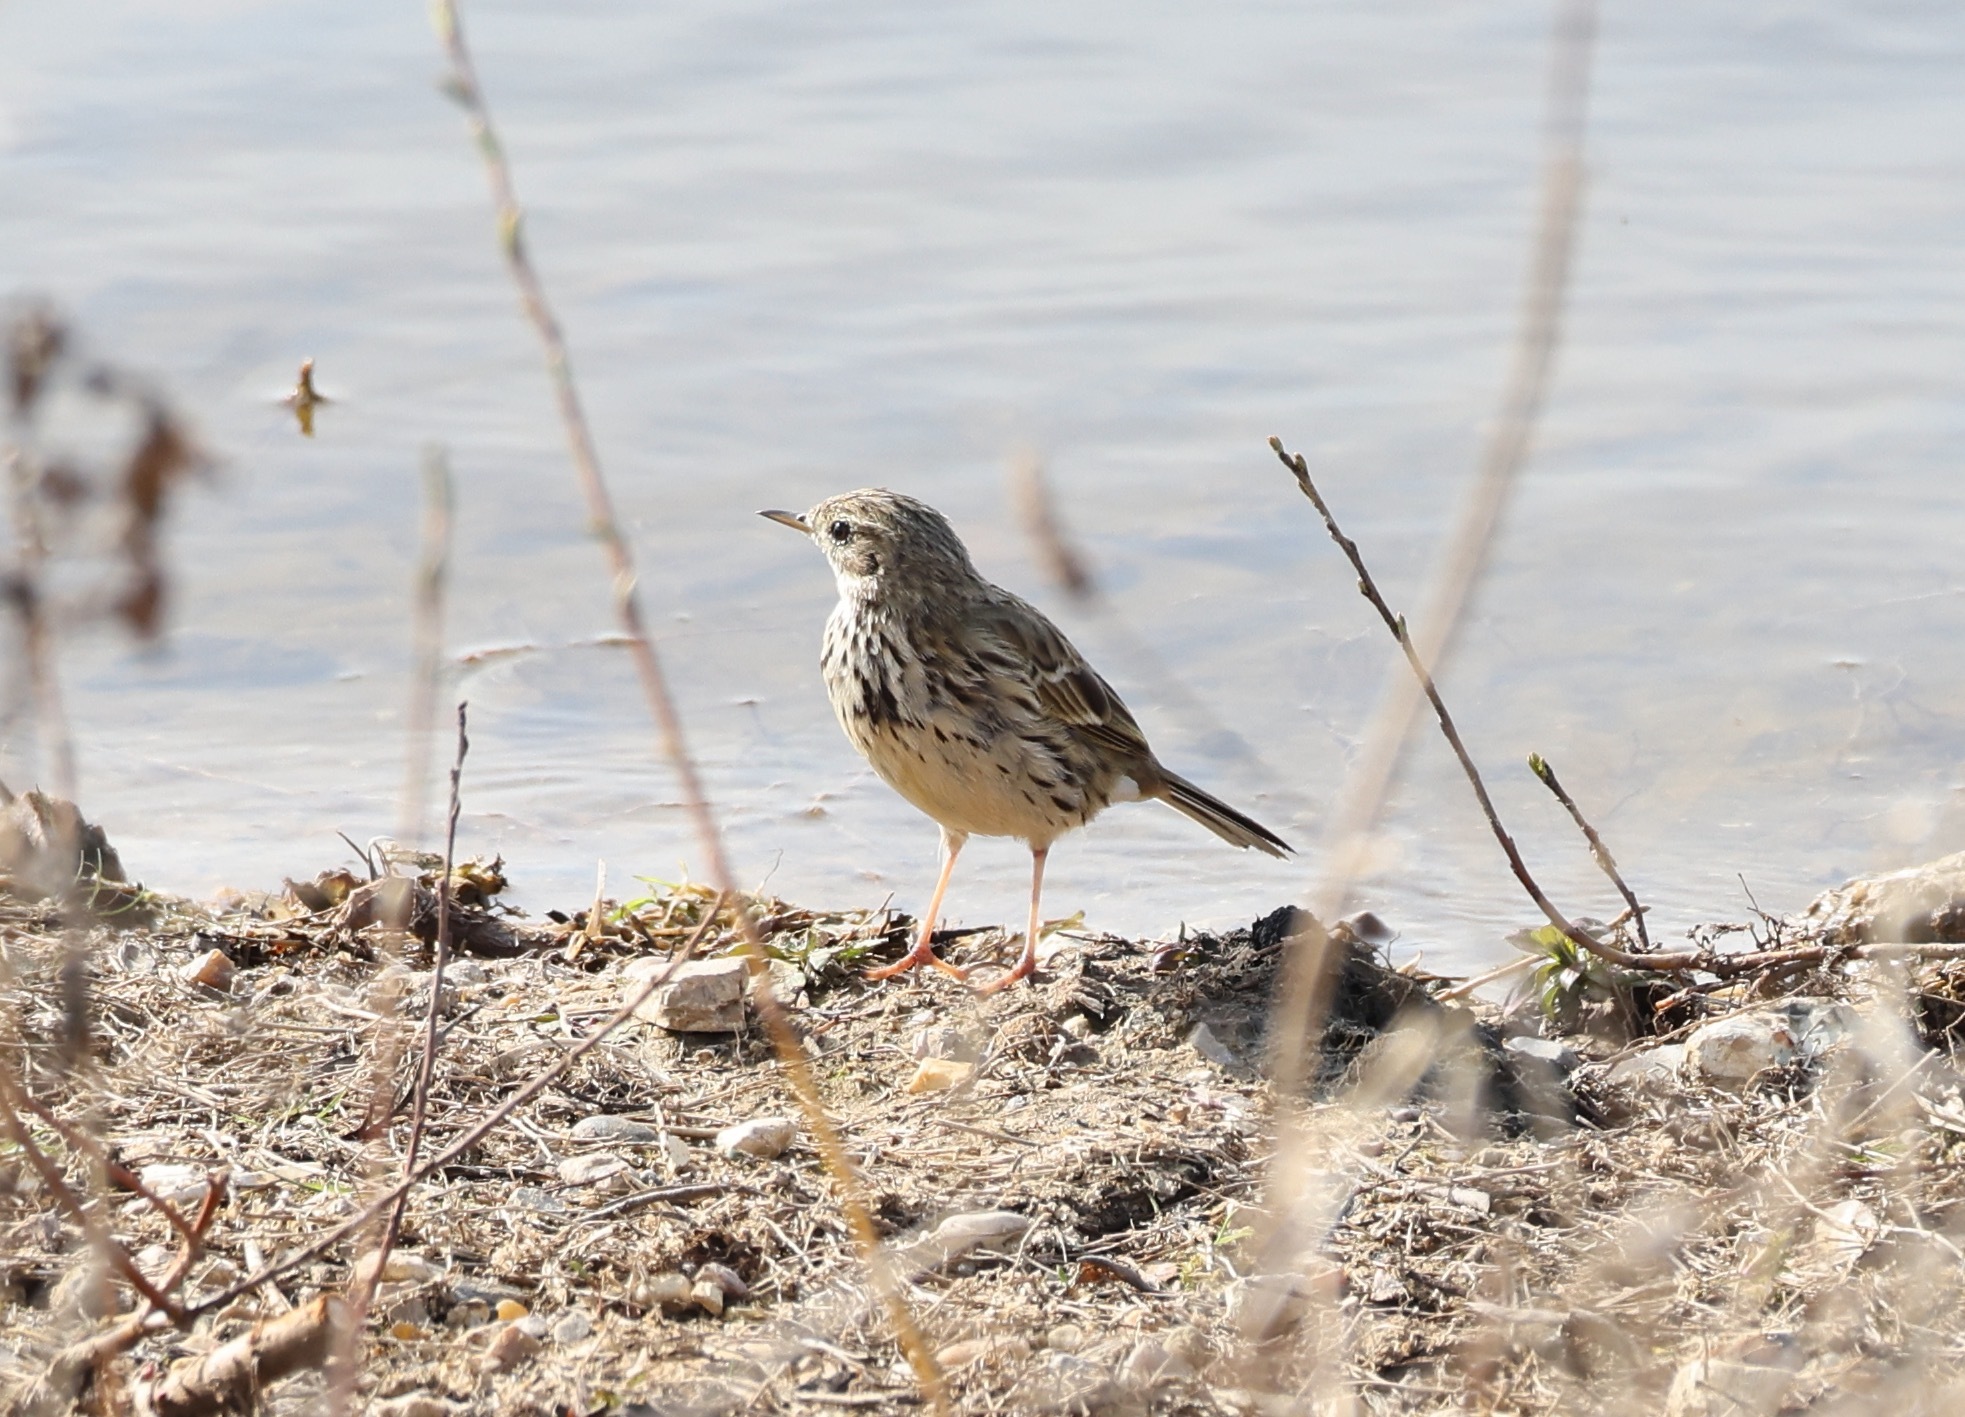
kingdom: Animalia
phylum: Chordata
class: Aves
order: Passeriformes
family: Motacillidae
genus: Anthus
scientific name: Anthus pratensis
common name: Meadow pipit
